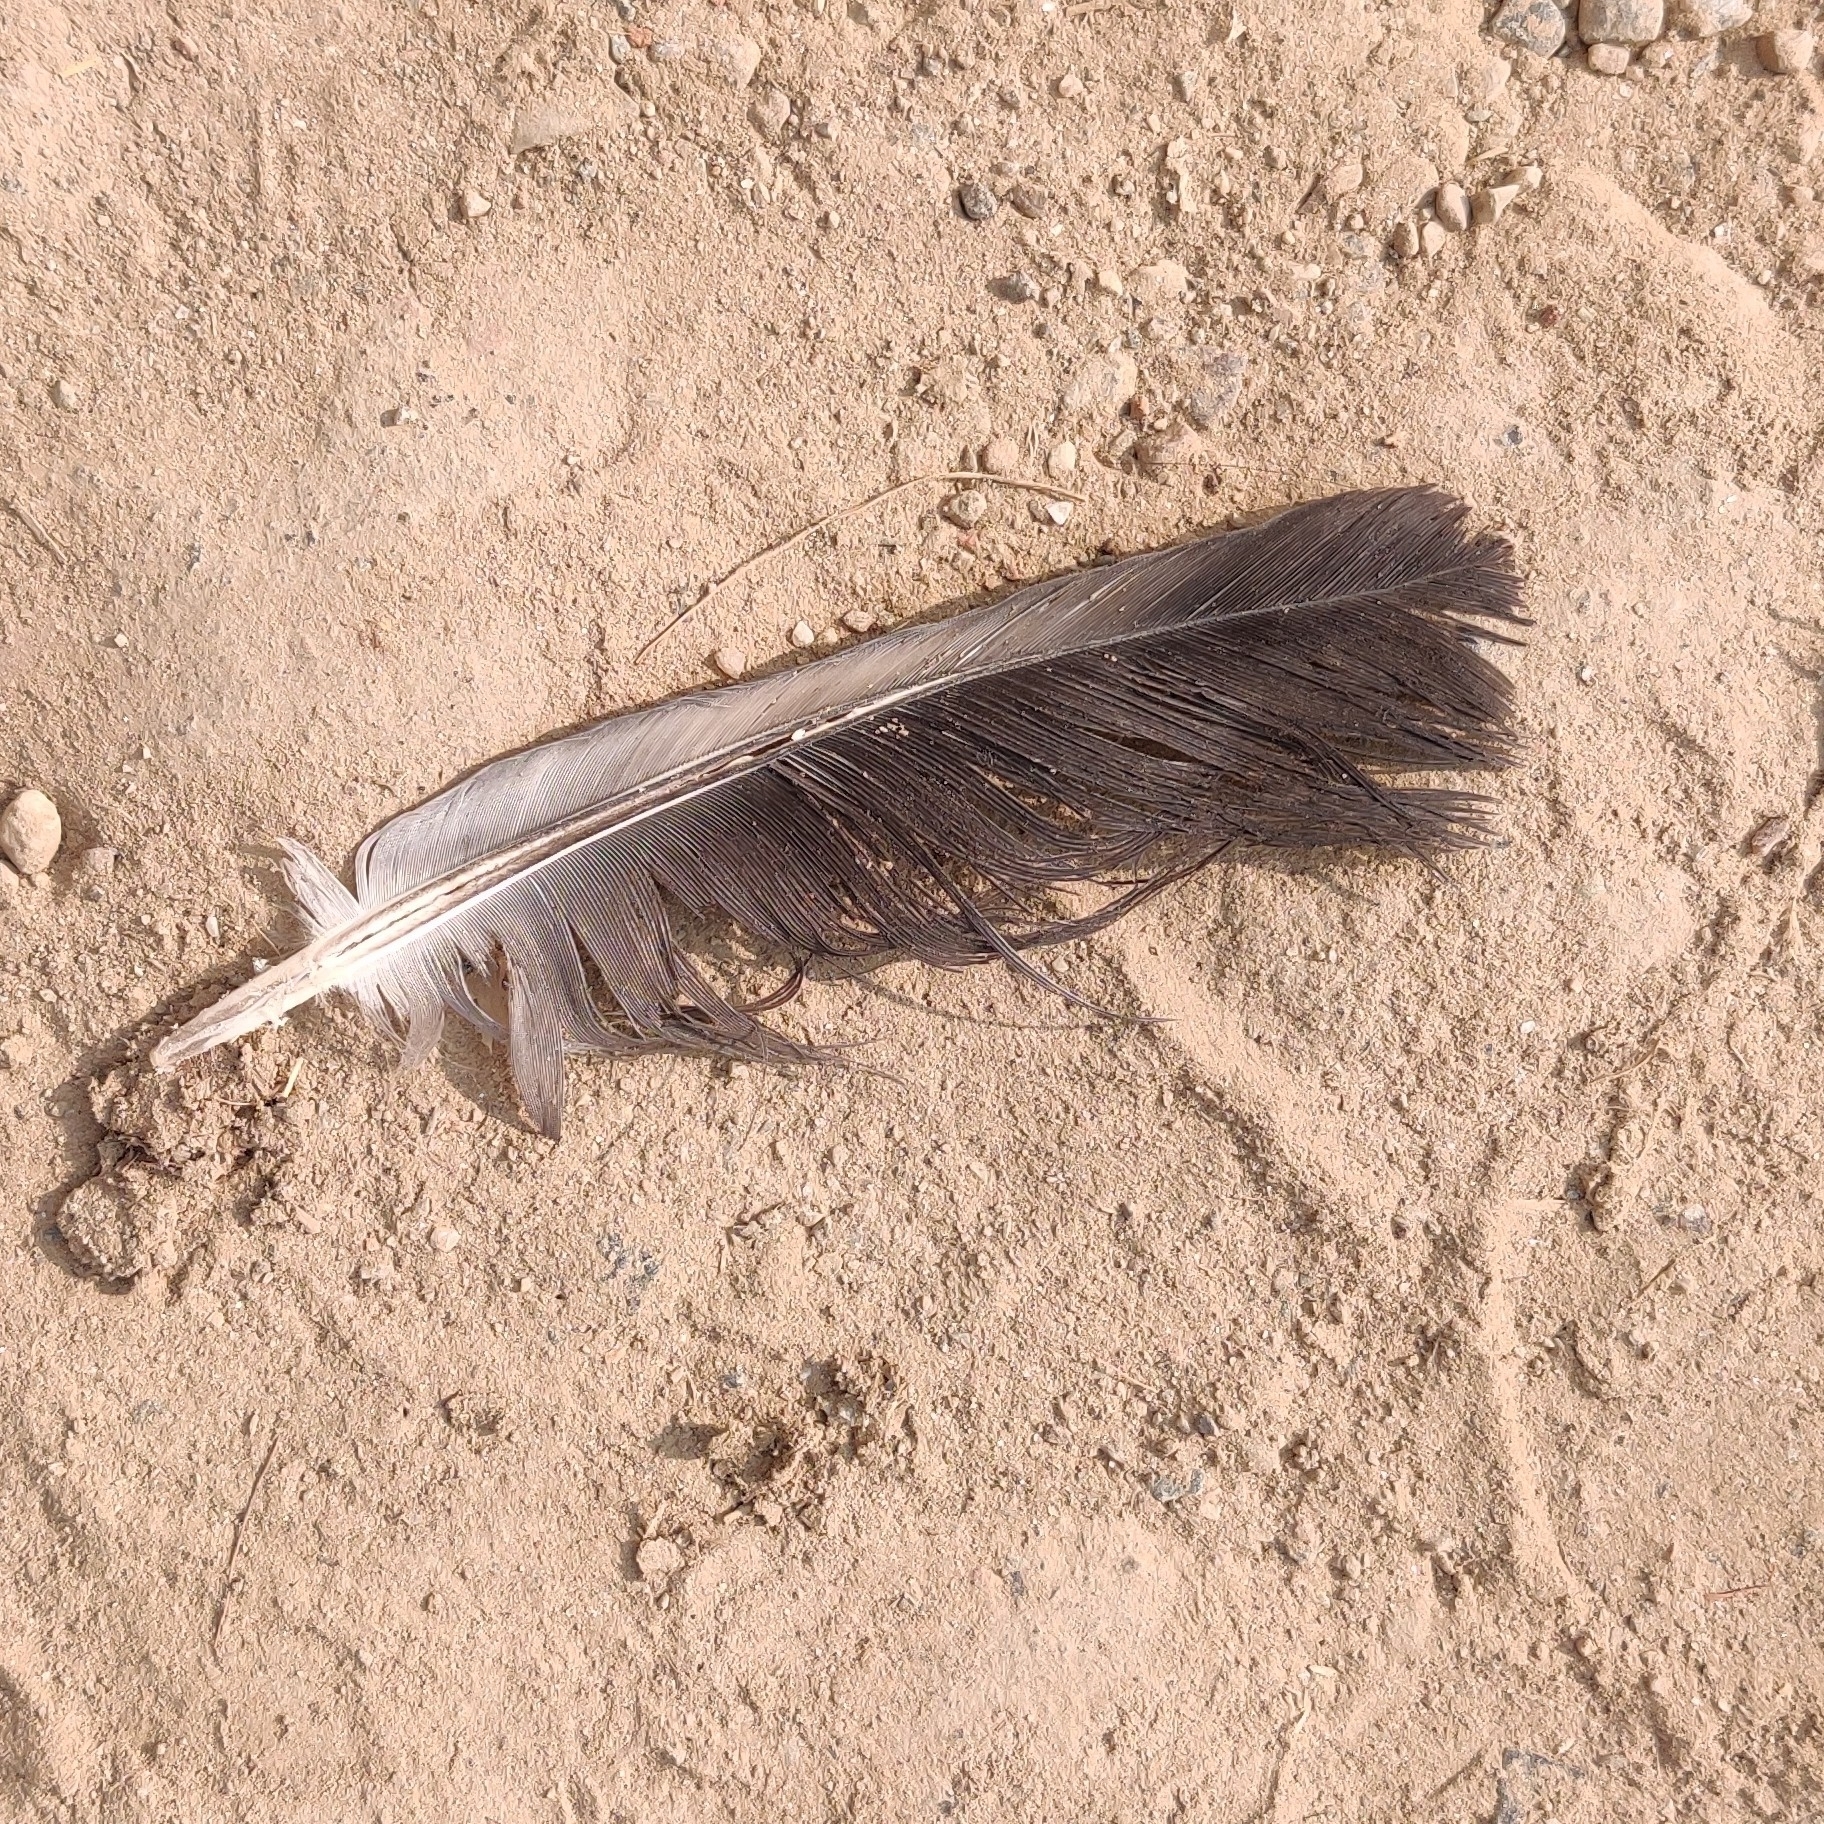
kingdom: Animalia
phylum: Chordata
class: Aves
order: Columbiformes
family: Columbidae
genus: Columba
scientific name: Columba livia
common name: Rock pigeon
